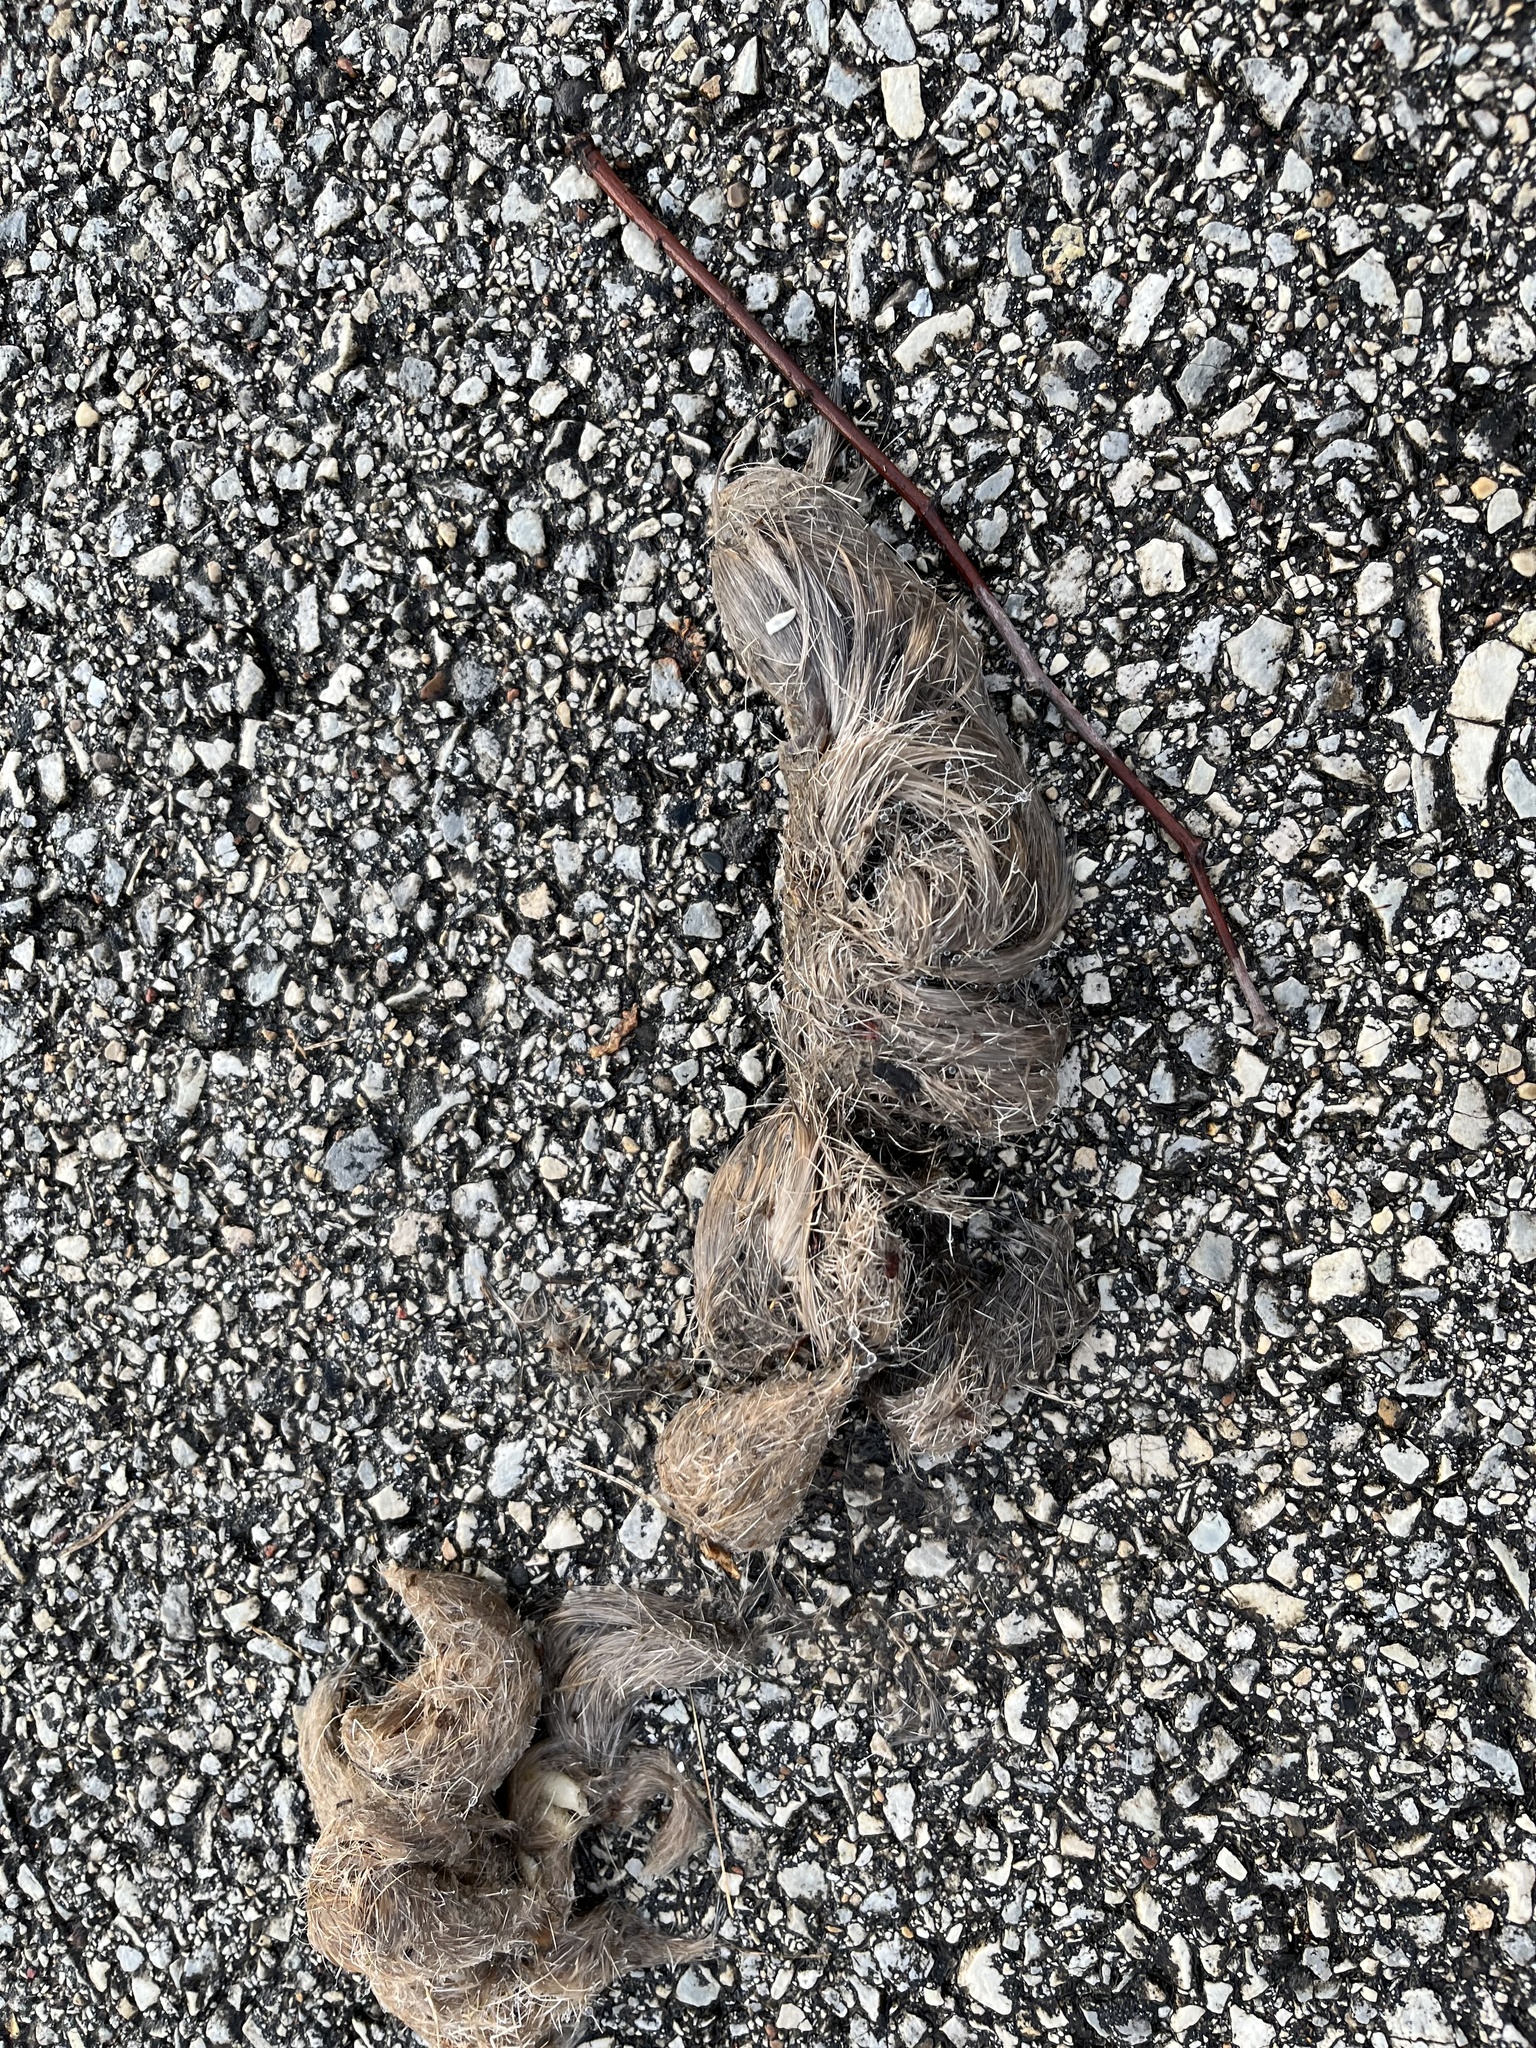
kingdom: Animalia
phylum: Chordata
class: Mammalia
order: Carnivora
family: Canidae
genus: Canis
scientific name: Canis latrans
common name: Coyote
